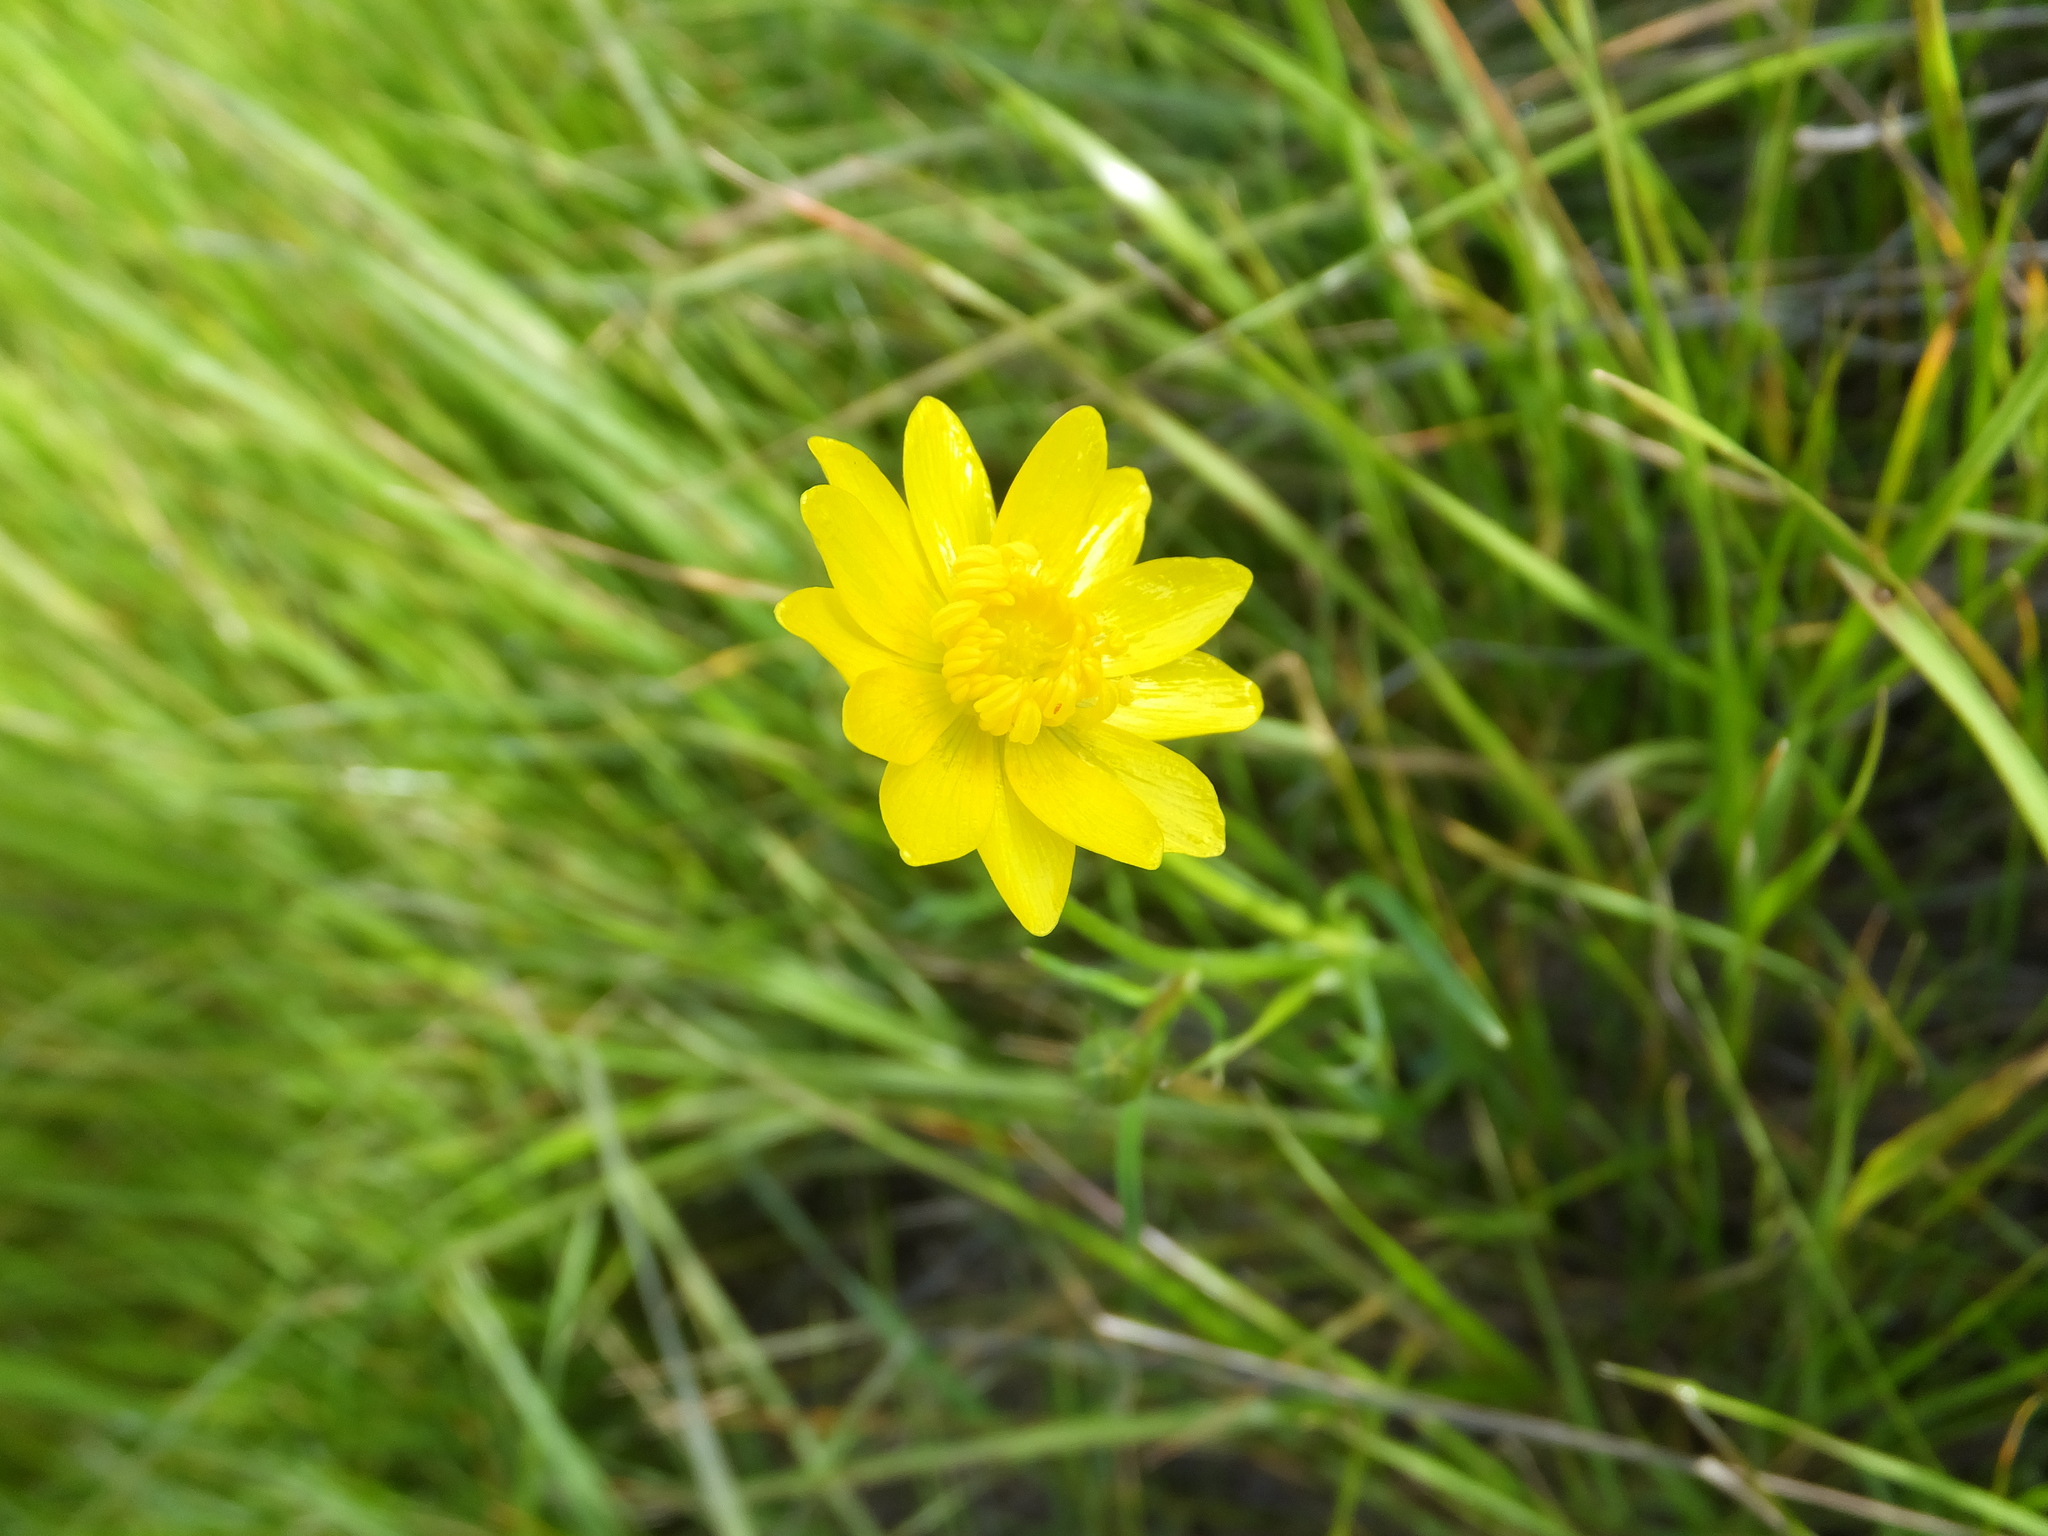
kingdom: Plantae
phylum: Tracheophyta
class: Magnoliopsida
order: Ranunculales
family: Ranunculaceae
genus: Ranunculus
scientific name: Ranunculus californicus
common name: California buttercup
